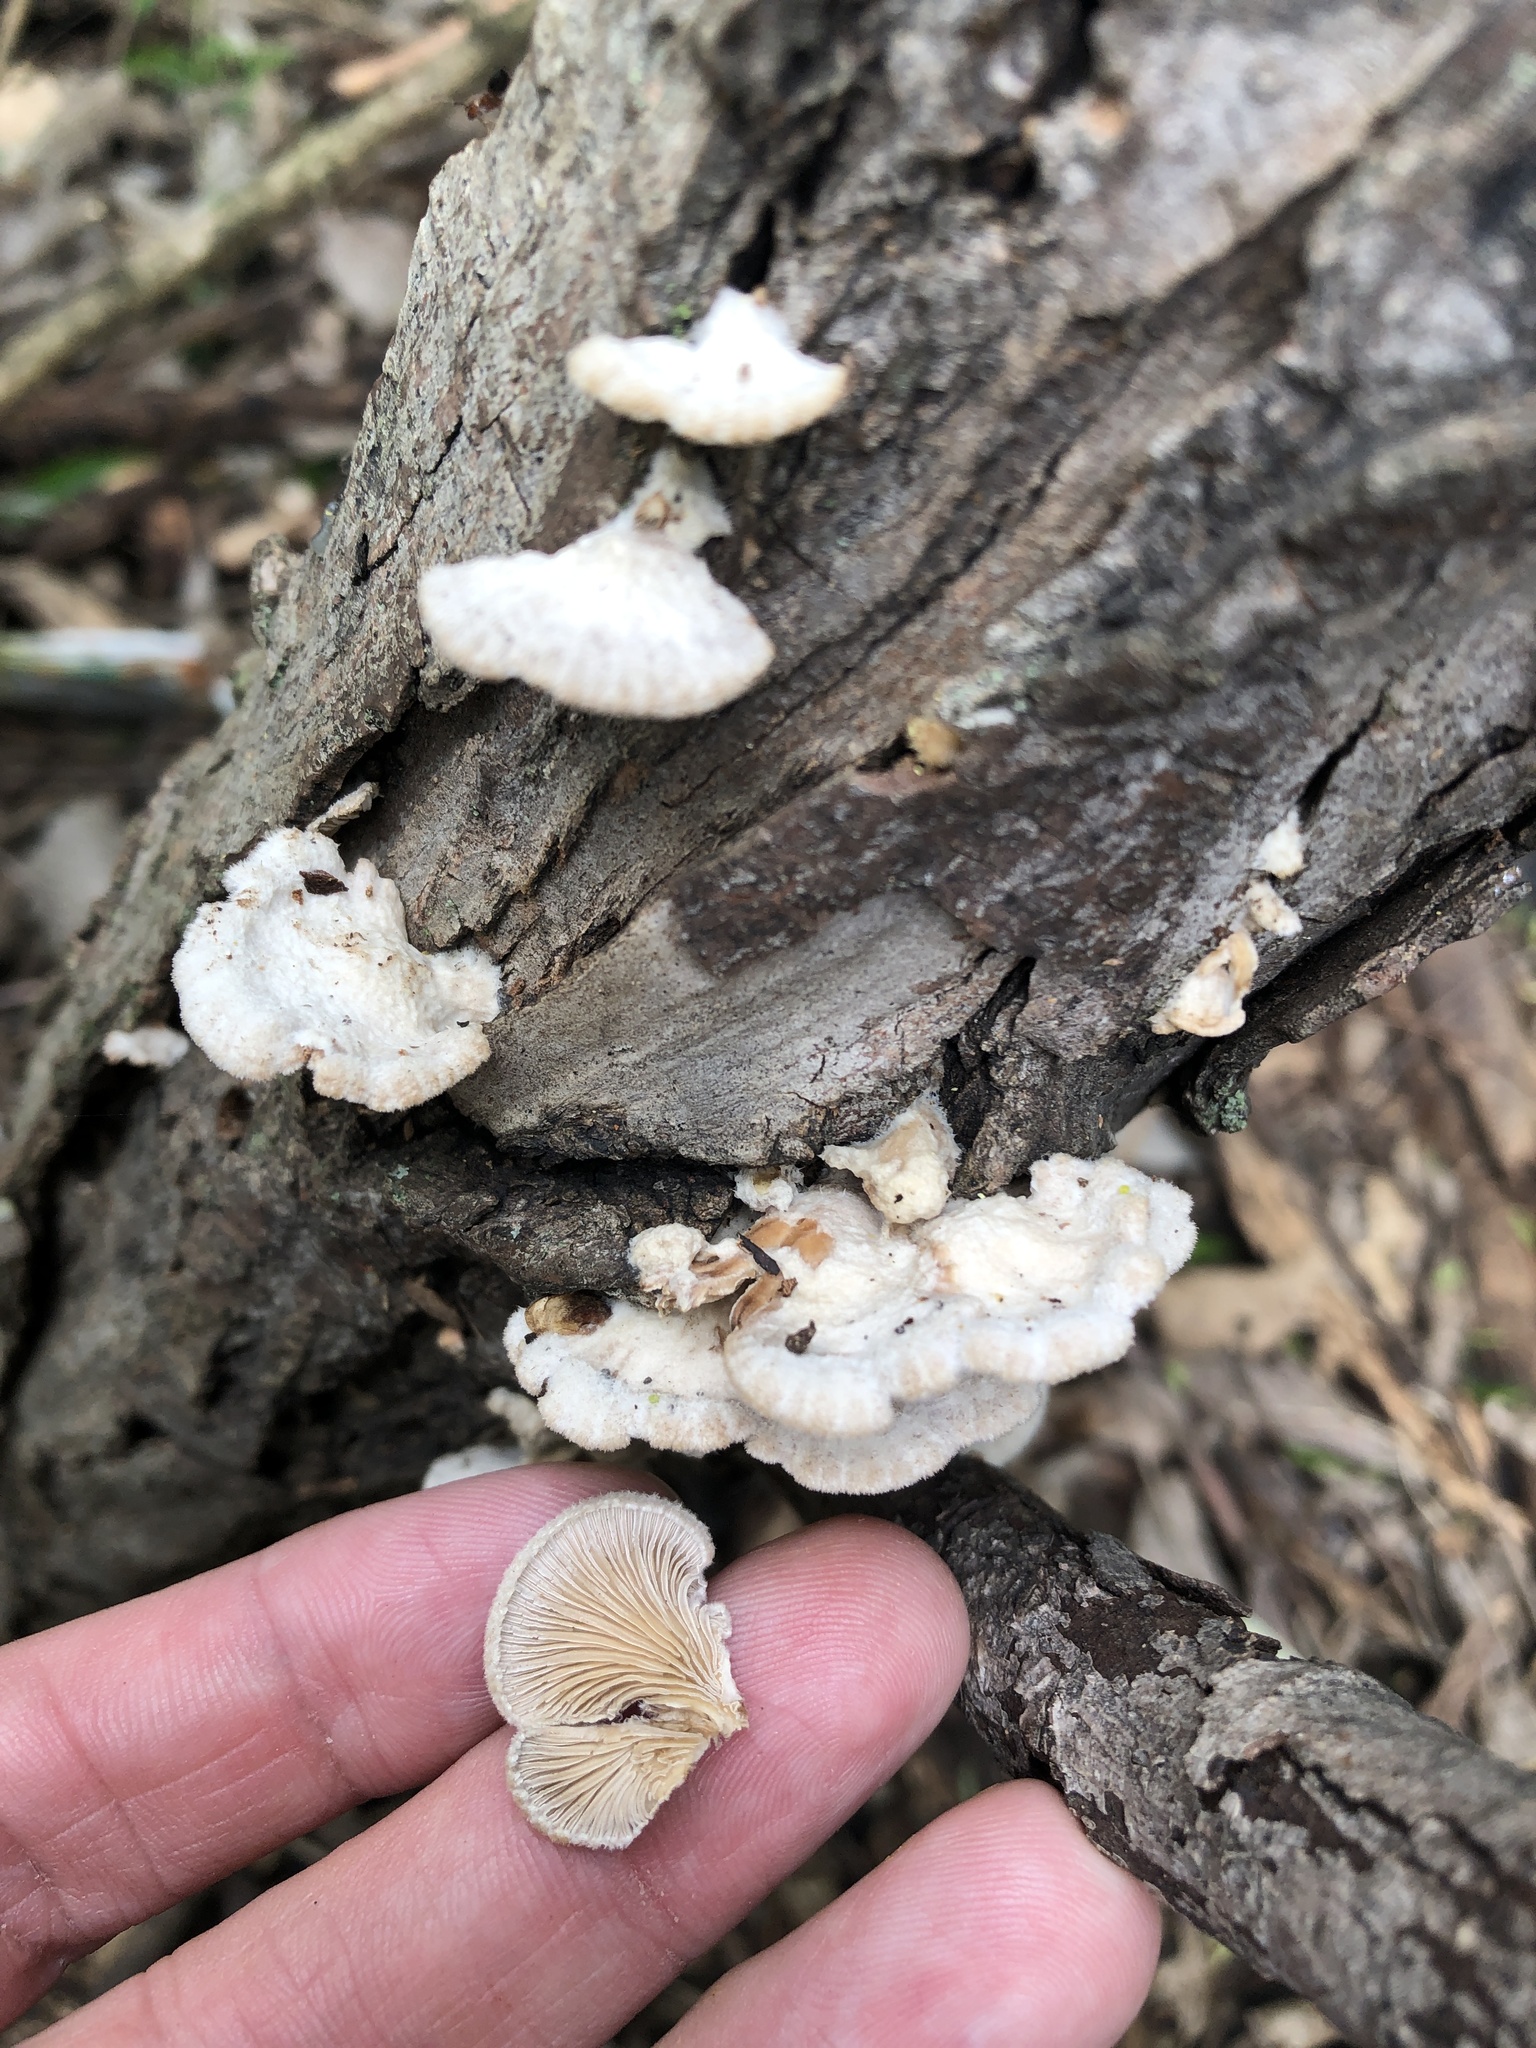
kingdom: Fungi
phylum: Basidiomycota
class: Agaricomycetes
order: Agaricales
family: Schizophyllaceae
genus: Schizophyllum
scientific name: Schizophyllum commune
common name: Common porecrust
